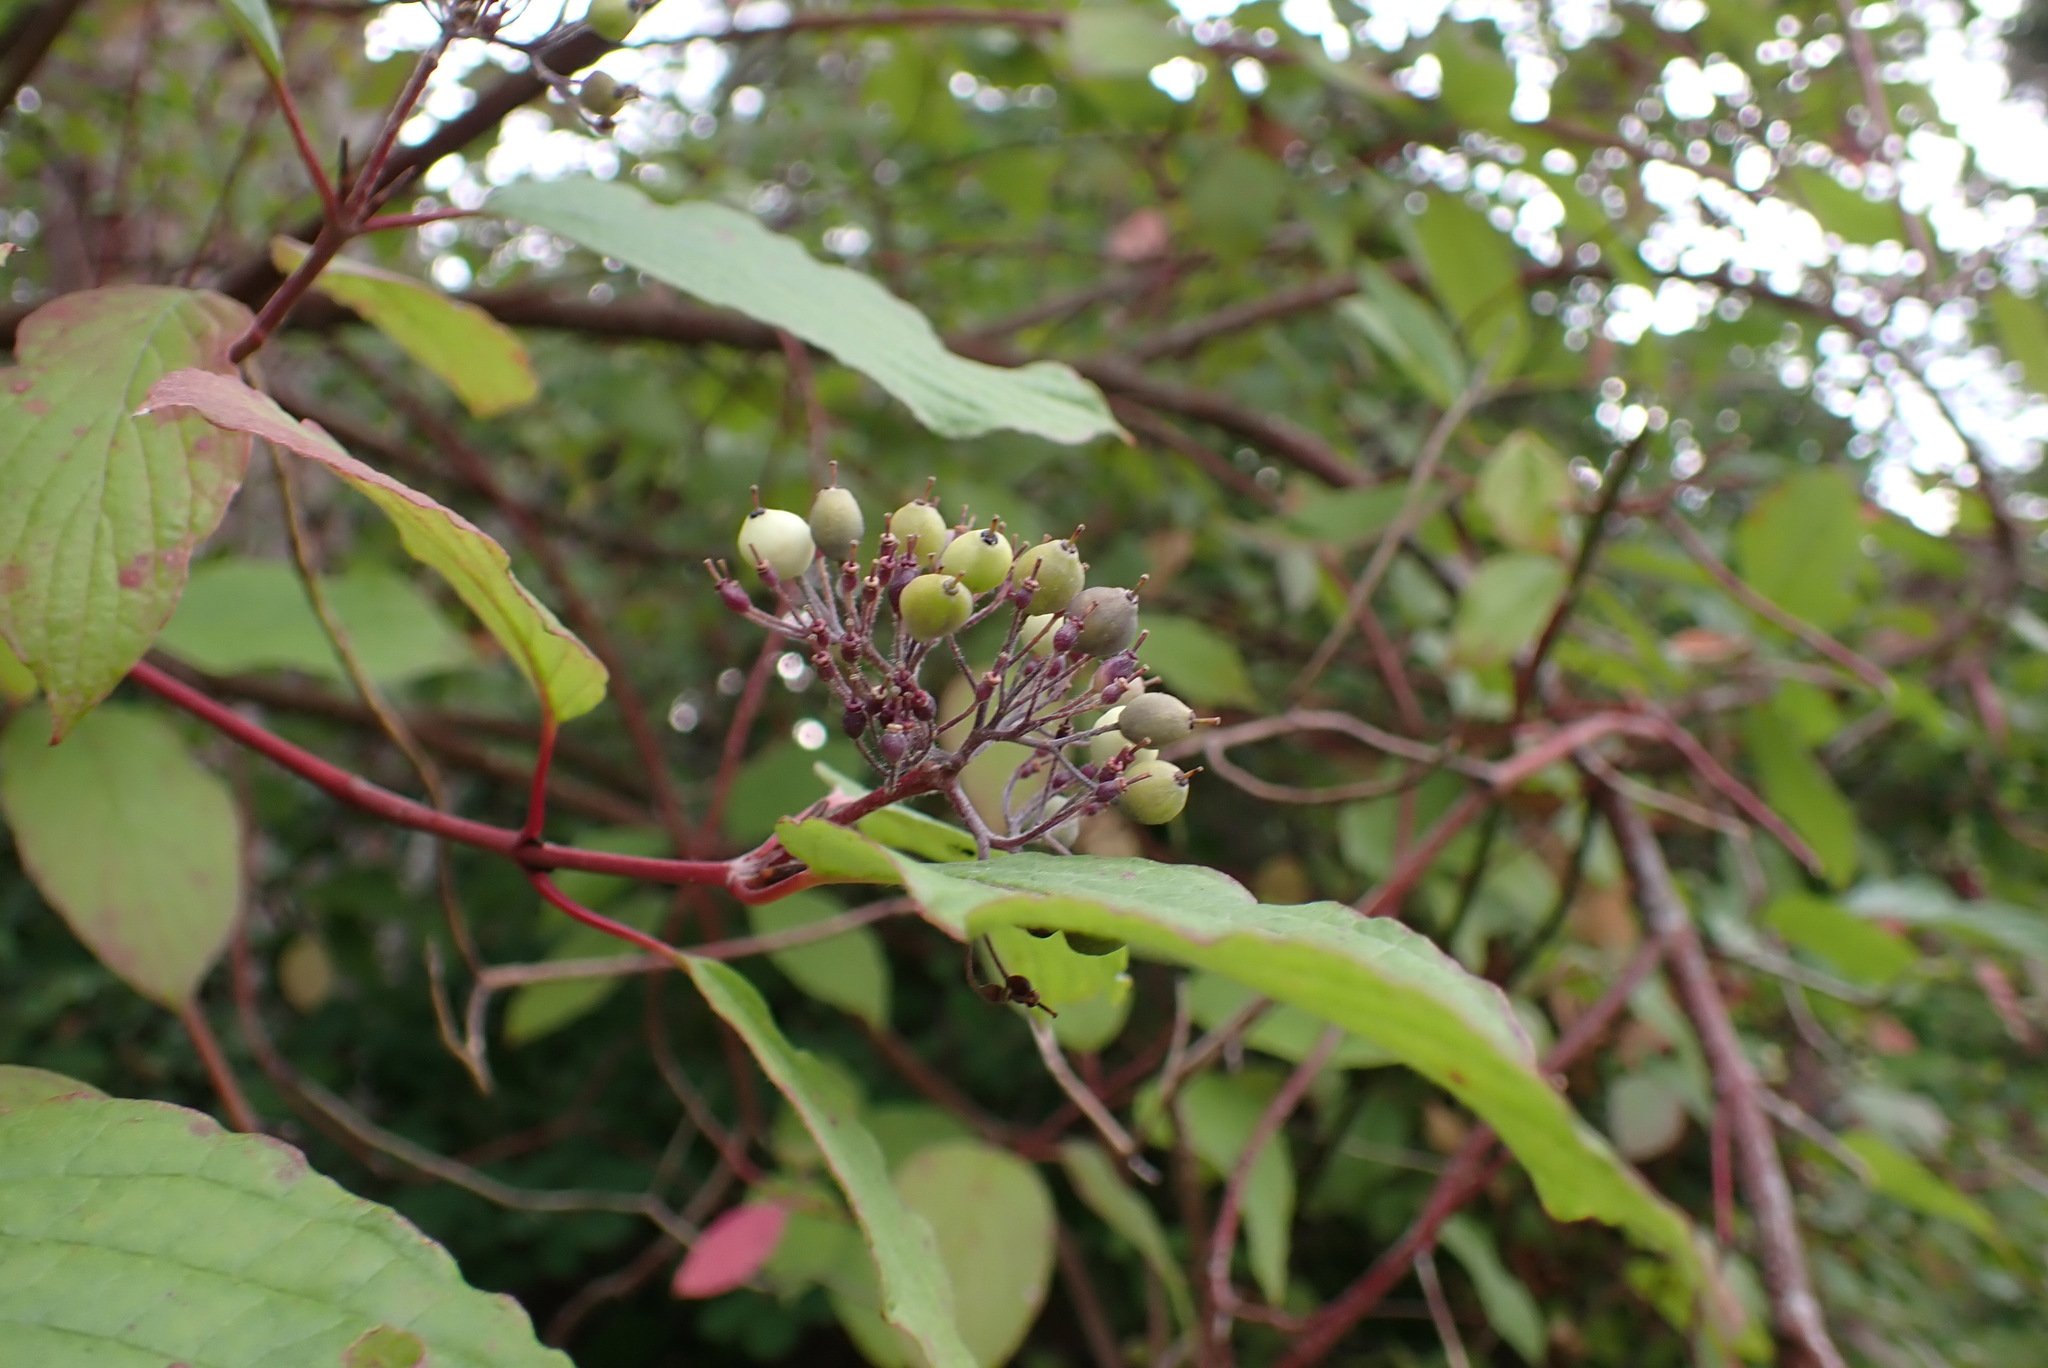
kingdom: Plantae
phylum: Tracheophyta
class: Magnoliopsida
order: Cornales
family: Cornaceae
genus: Cornus
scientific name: Cornus sericea
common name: Red-osier dogwood
